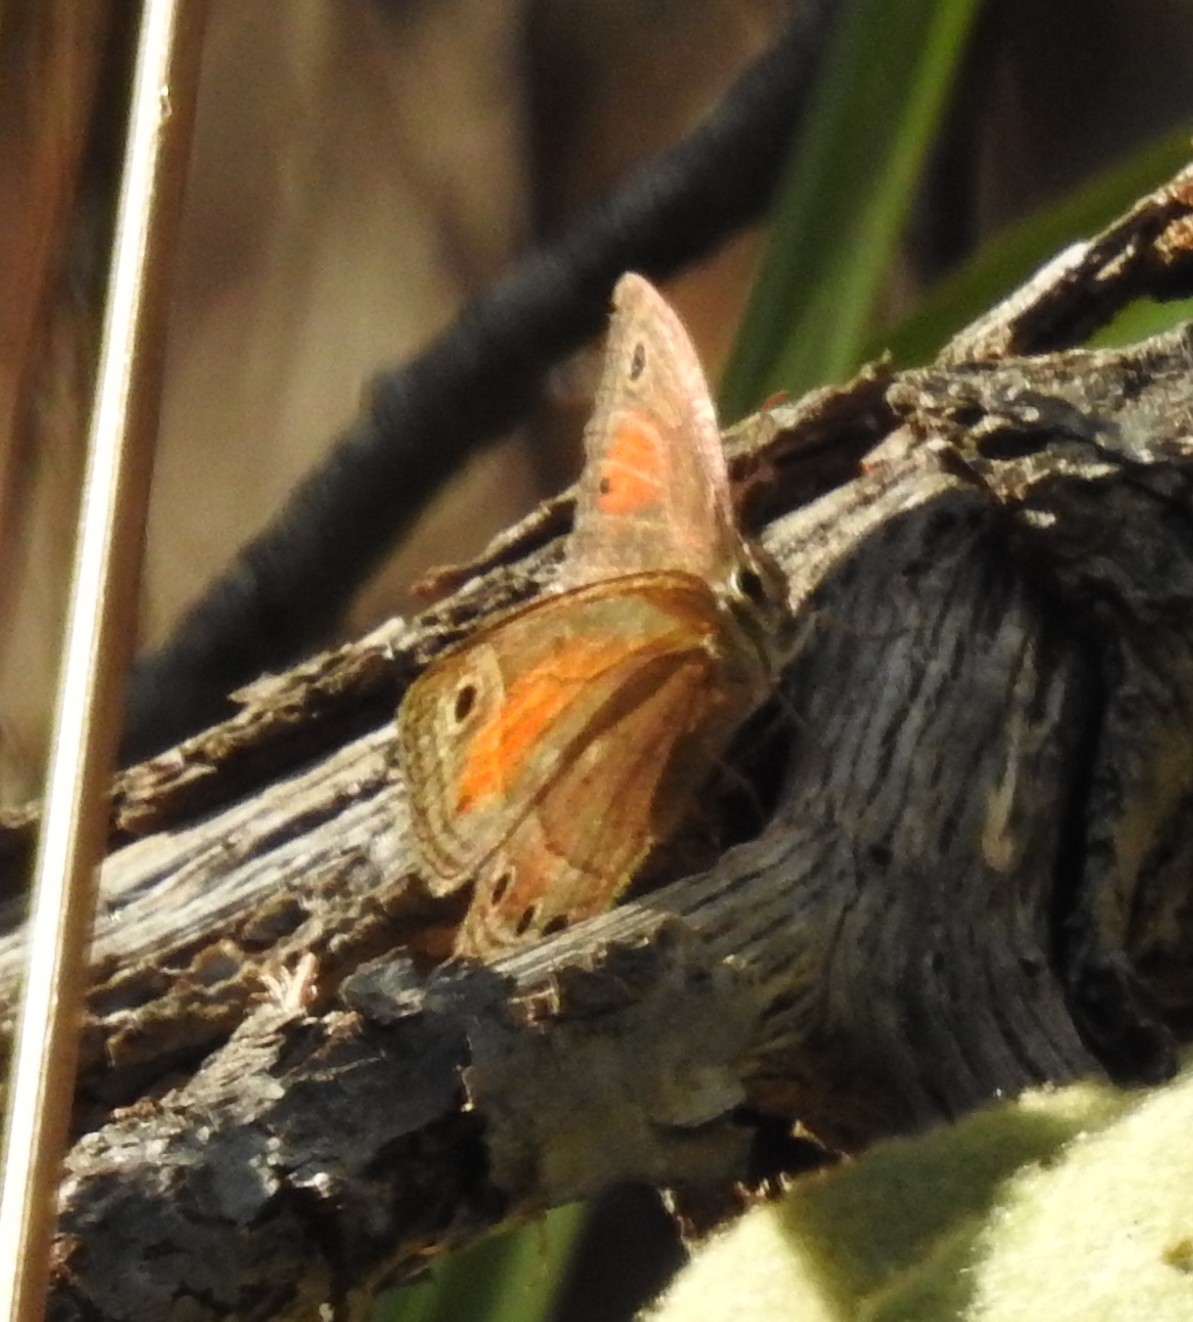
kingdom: Animalia
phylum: Arthropoda
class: Insecta
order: Lepidoptera
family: Nymphalidae
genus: Euptychia
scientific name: Euptychia
